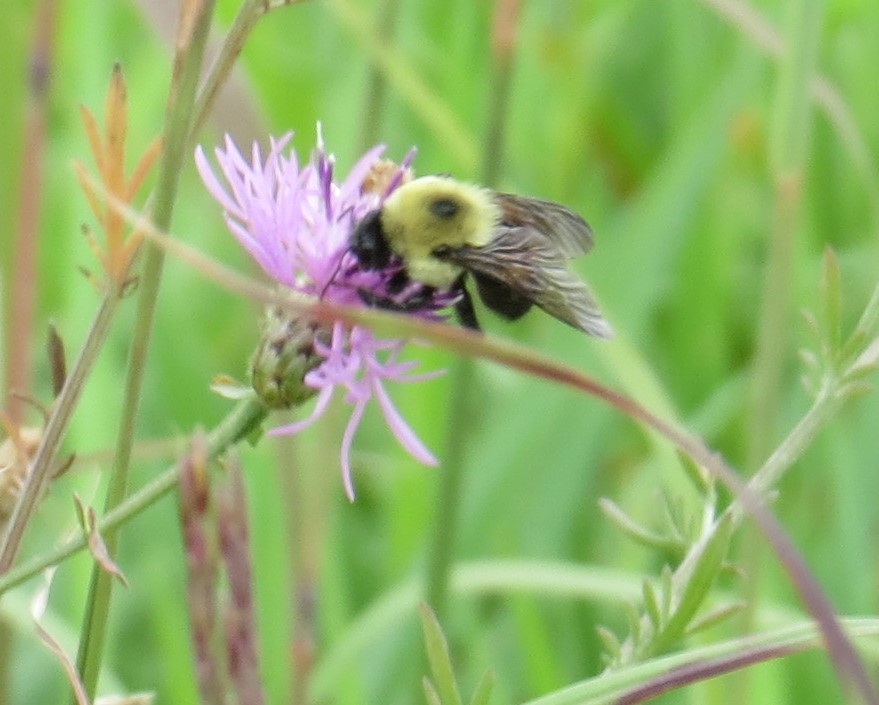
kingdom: Animalia
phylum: Arthropoda
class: Insecta
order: Hymenoptera
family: Apidae
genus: Bombus
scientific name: Bombus griseocollis
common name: Brown-belted bumble bee
